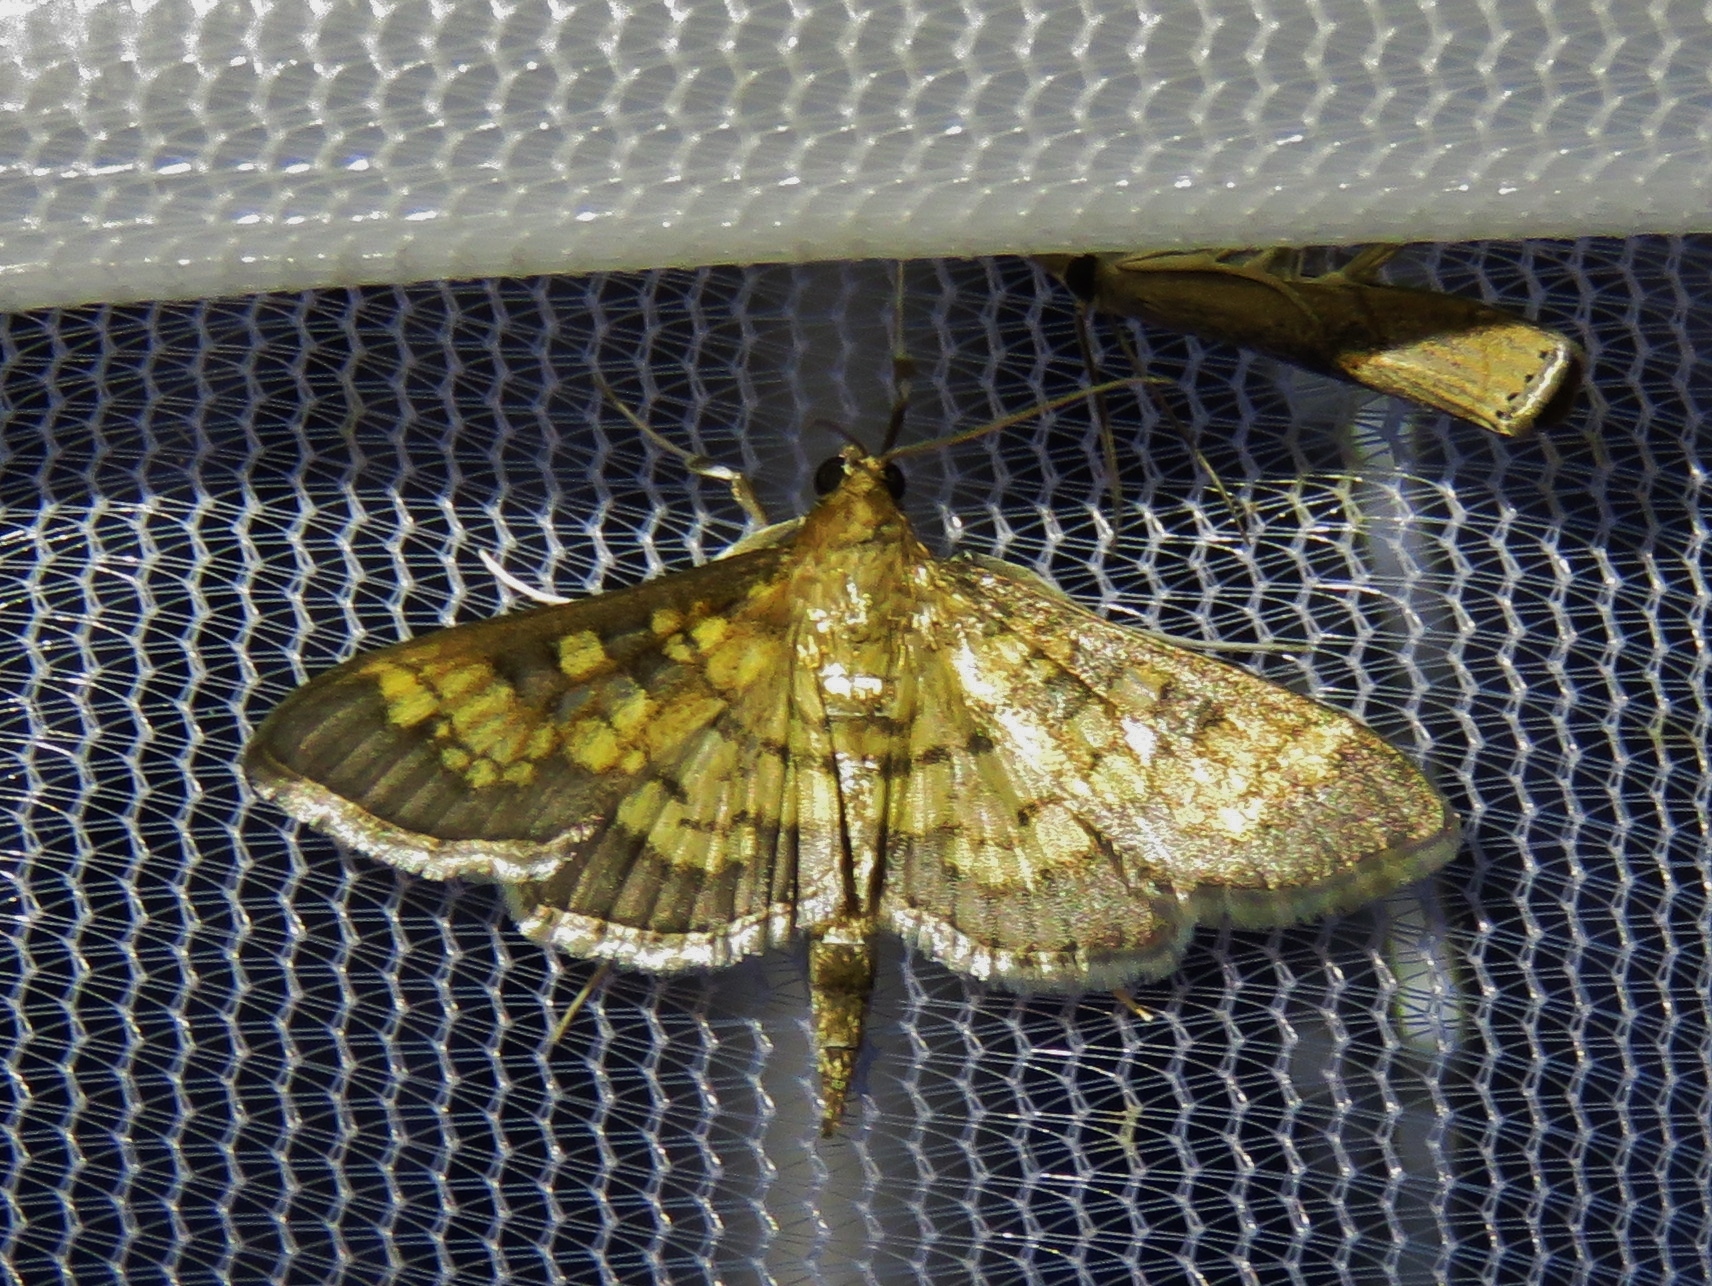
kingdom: Animalia
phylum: Arthropoda
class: Insecta
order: Lepidoptera
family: Crambidae
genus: Epipagis
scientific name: Epipagis adipaloides
